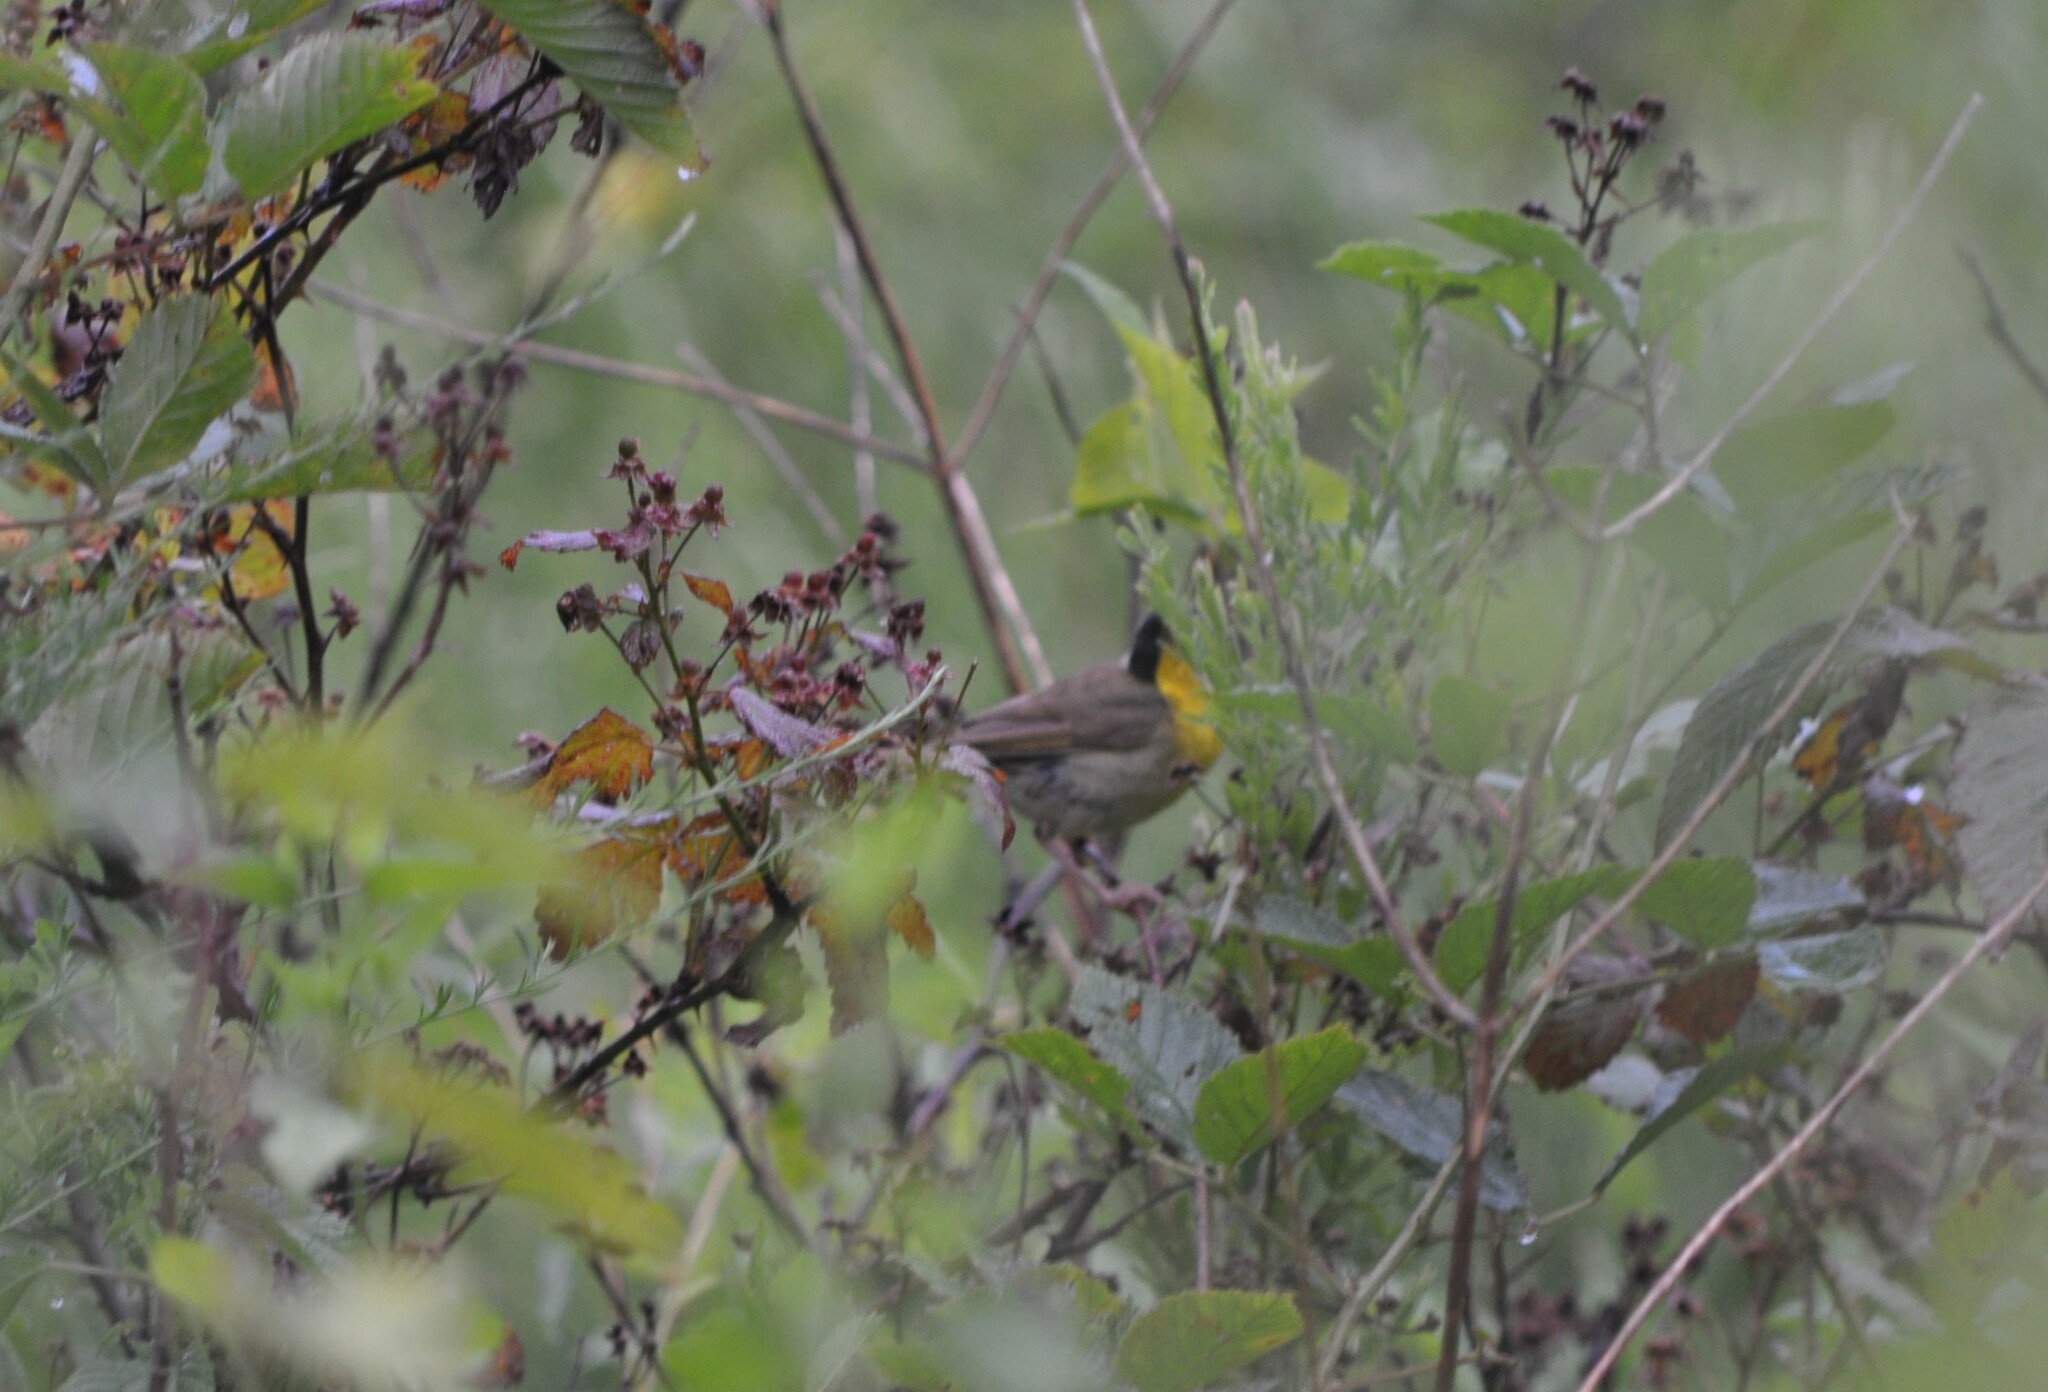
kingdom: Animalia
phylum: Chordata
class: Aves
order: Passeriformes
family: Parulidae
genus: Geothlypis
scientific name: Geothlypis trichas
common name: Common yellowthroat
